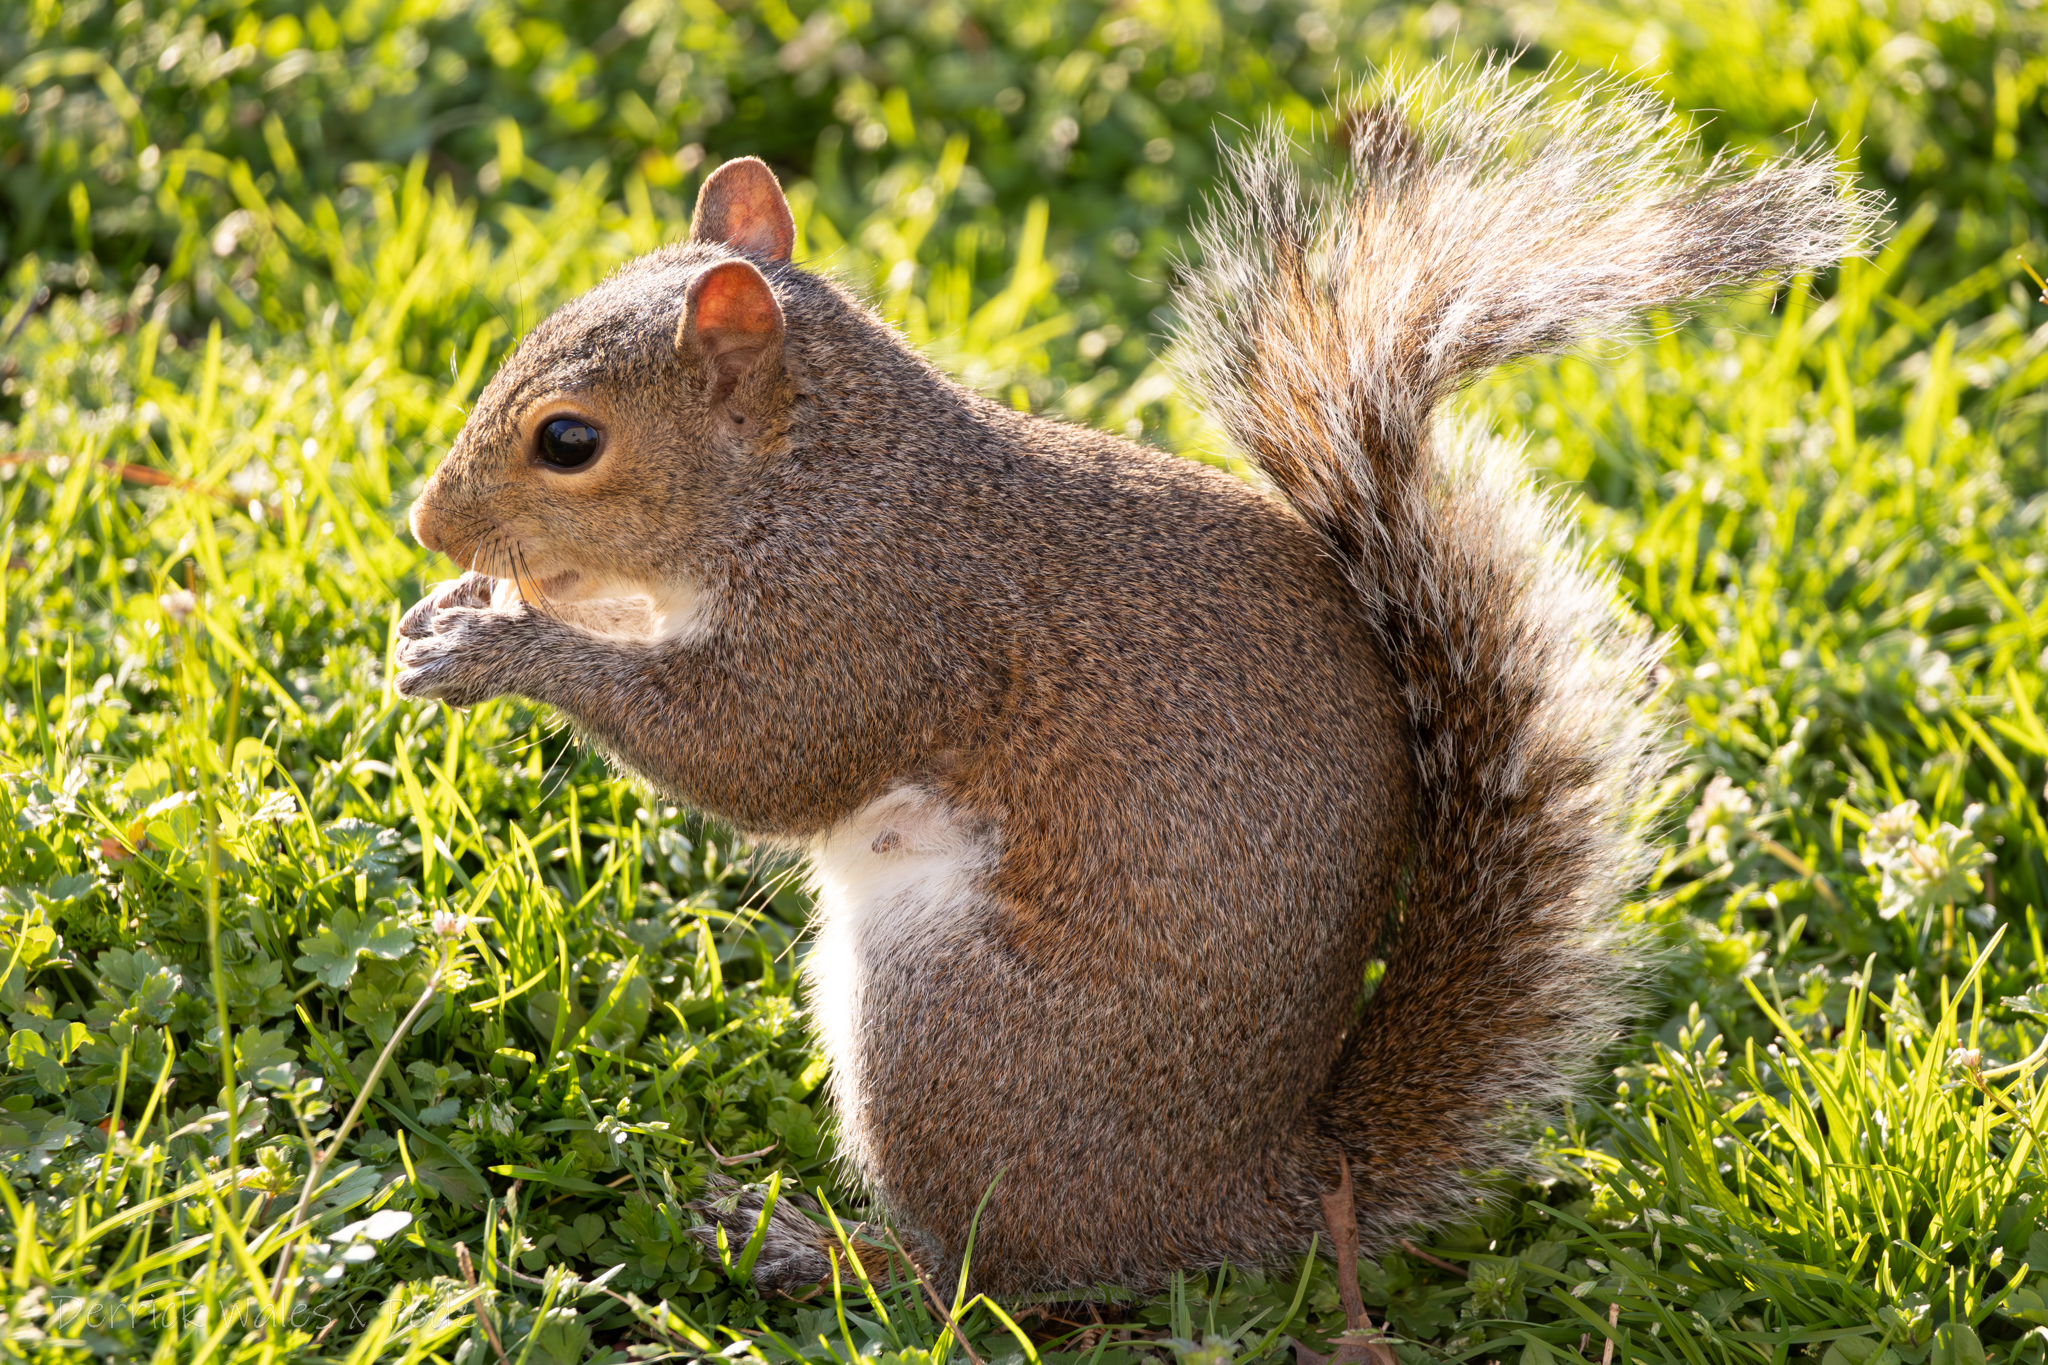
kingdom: Animalia
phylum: Chordata
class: Mammalia
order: Rodentia
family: Sciuridae
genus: Sciurus
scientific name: Sciurus carolinensis
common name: Eastern gray squirrel
